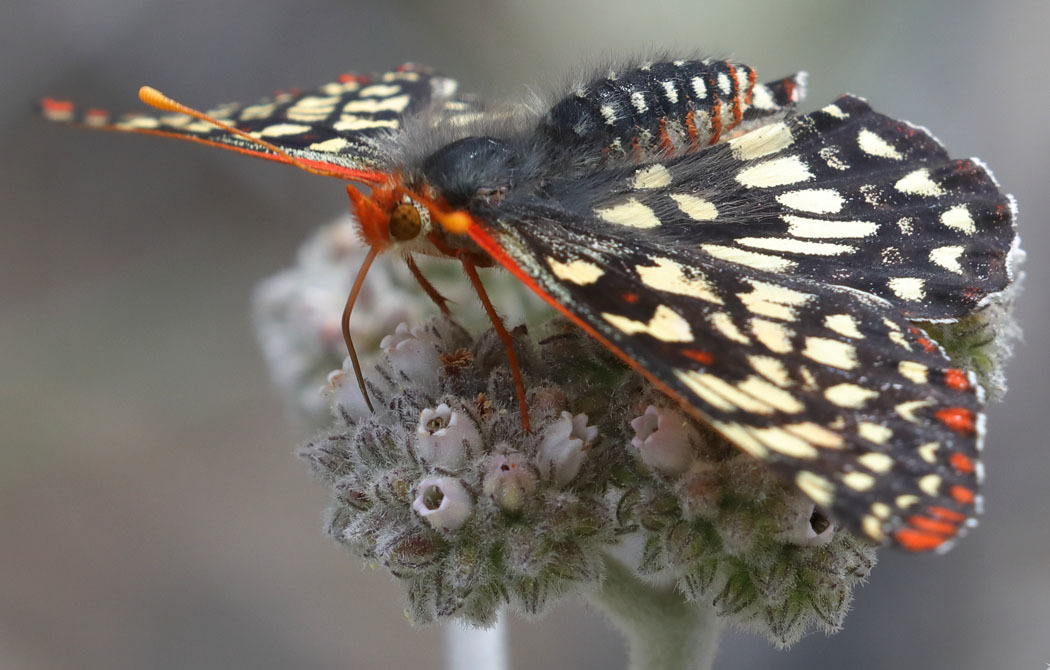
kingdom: Animalia
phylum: Arthropoda
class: Insecta
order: Lepidoptera
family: Nymphalidae
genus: Occidryas
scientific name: Occidryas chalcedona
